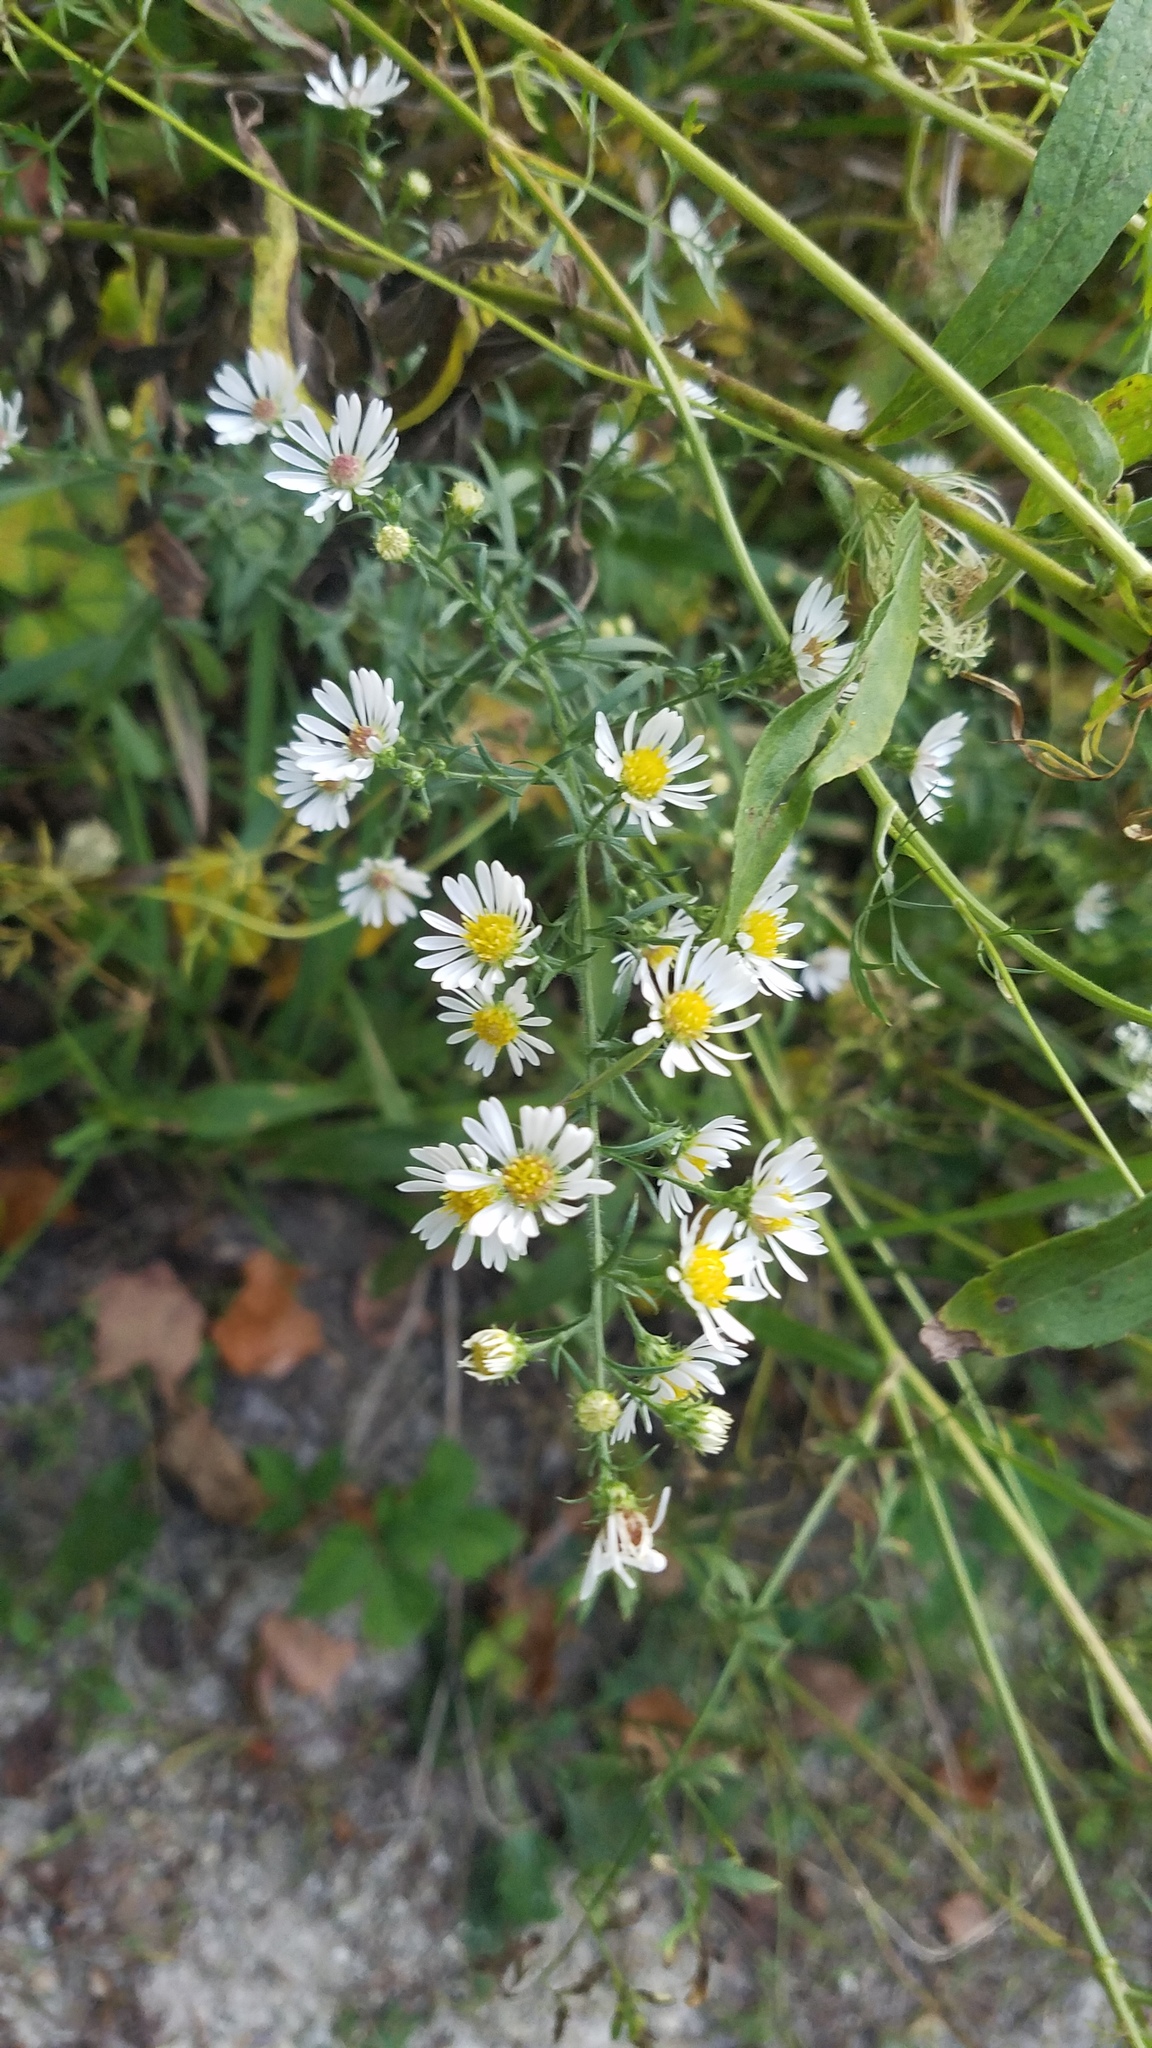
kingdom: Plantae
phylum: Tracheophyta
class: Magnoliopsida
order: Asterales
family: Asteraceae
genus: Symphyotrichum
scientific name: Symphyotrichum pilosum
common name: Awl aster
